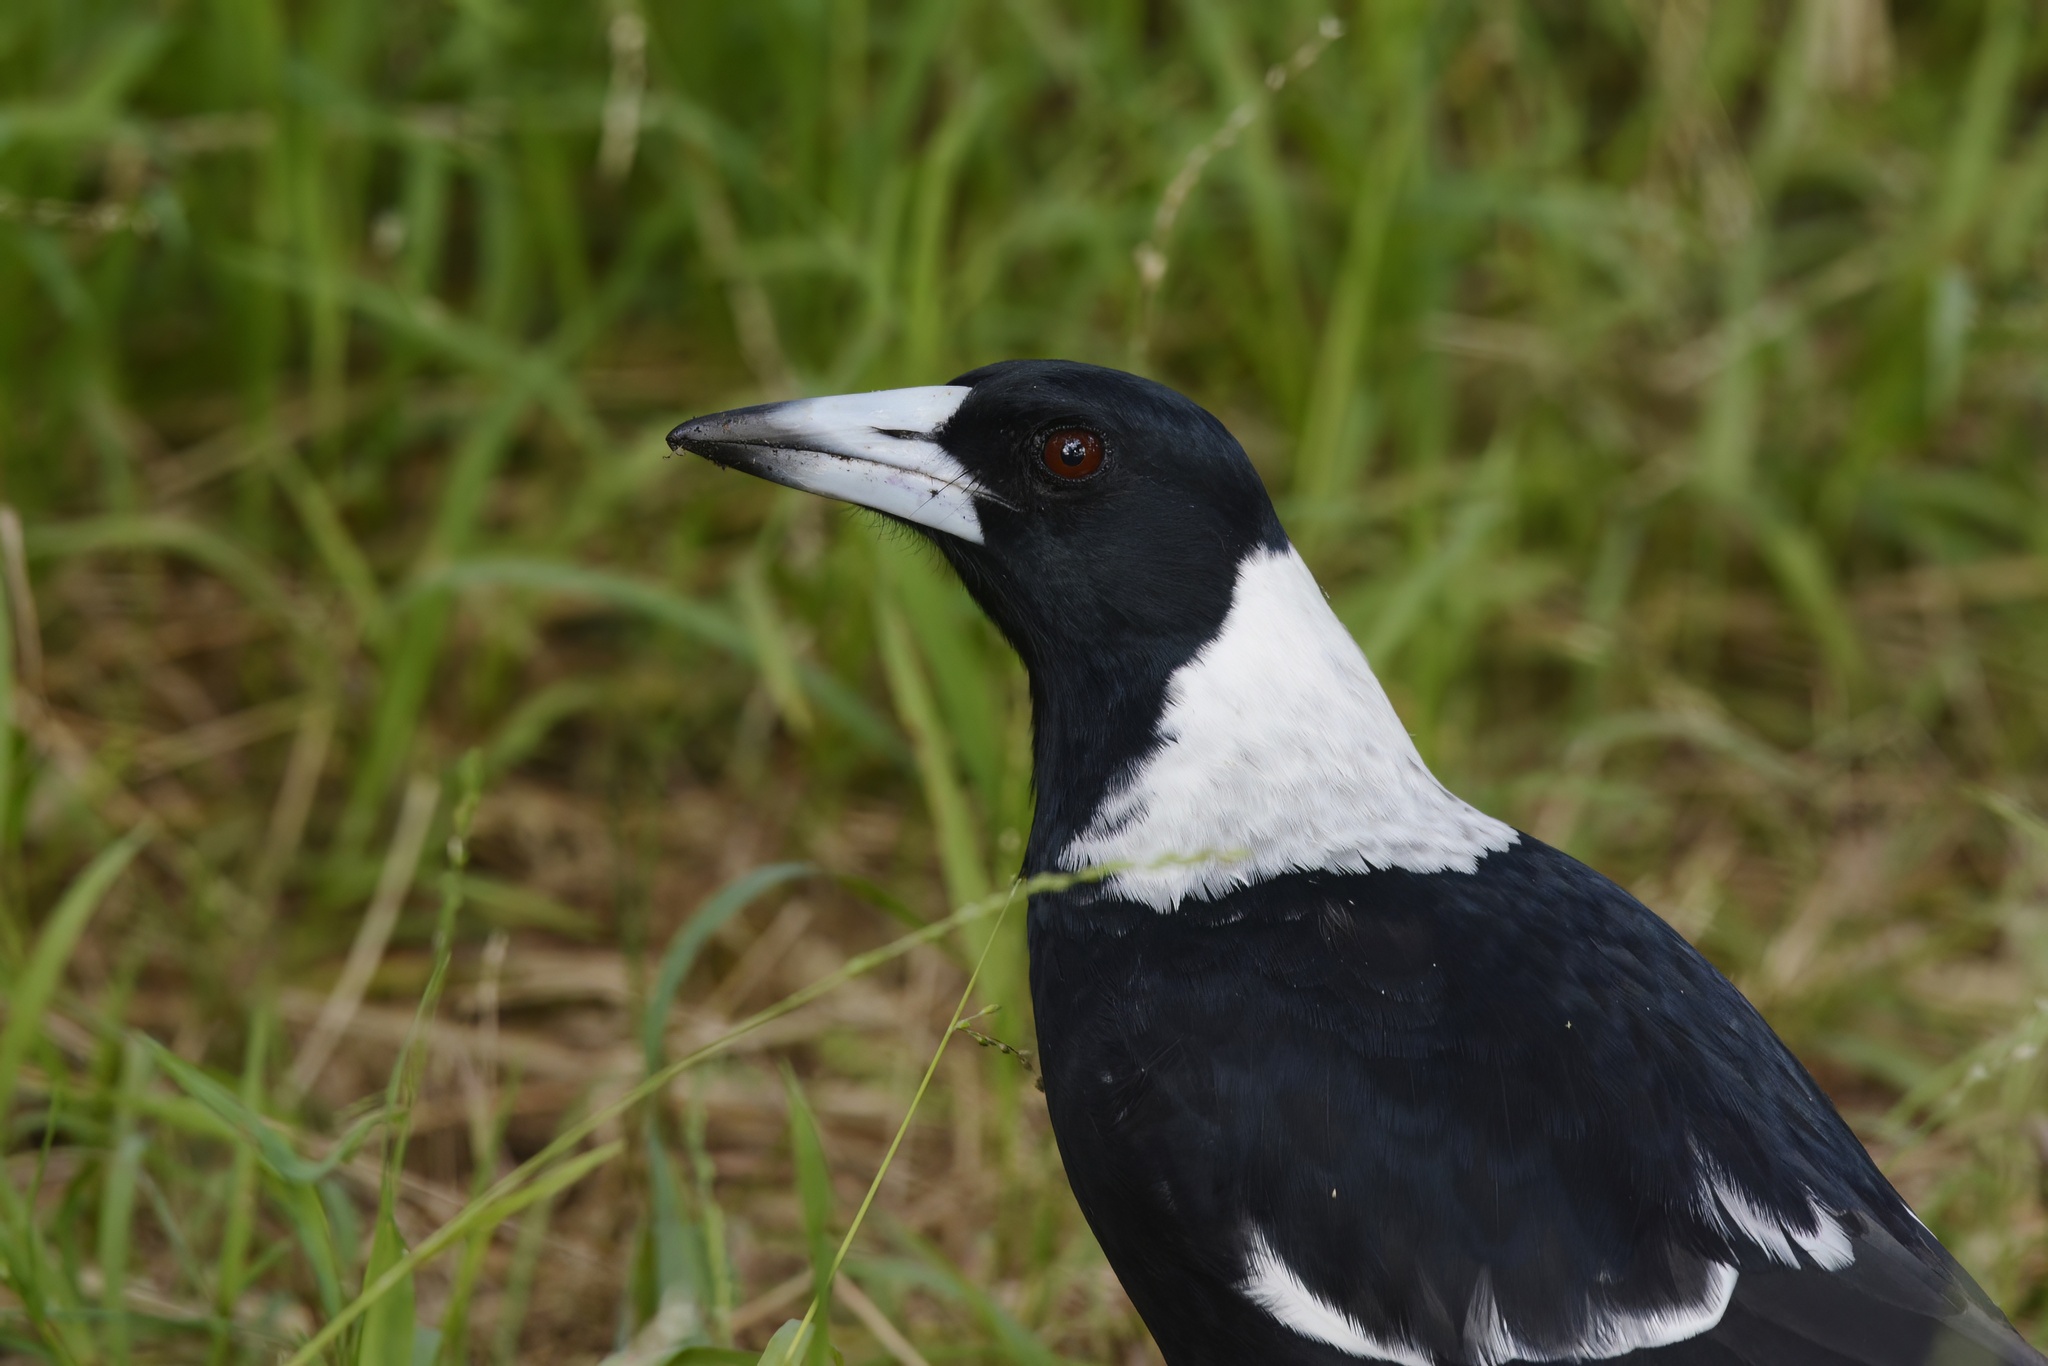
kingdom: Animalia
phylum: Chordata
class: Aves
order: Passeriformes
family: Cracticidae
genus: Gymnorhina
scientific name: Gymnorhina tibicen
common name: Australian magpie
